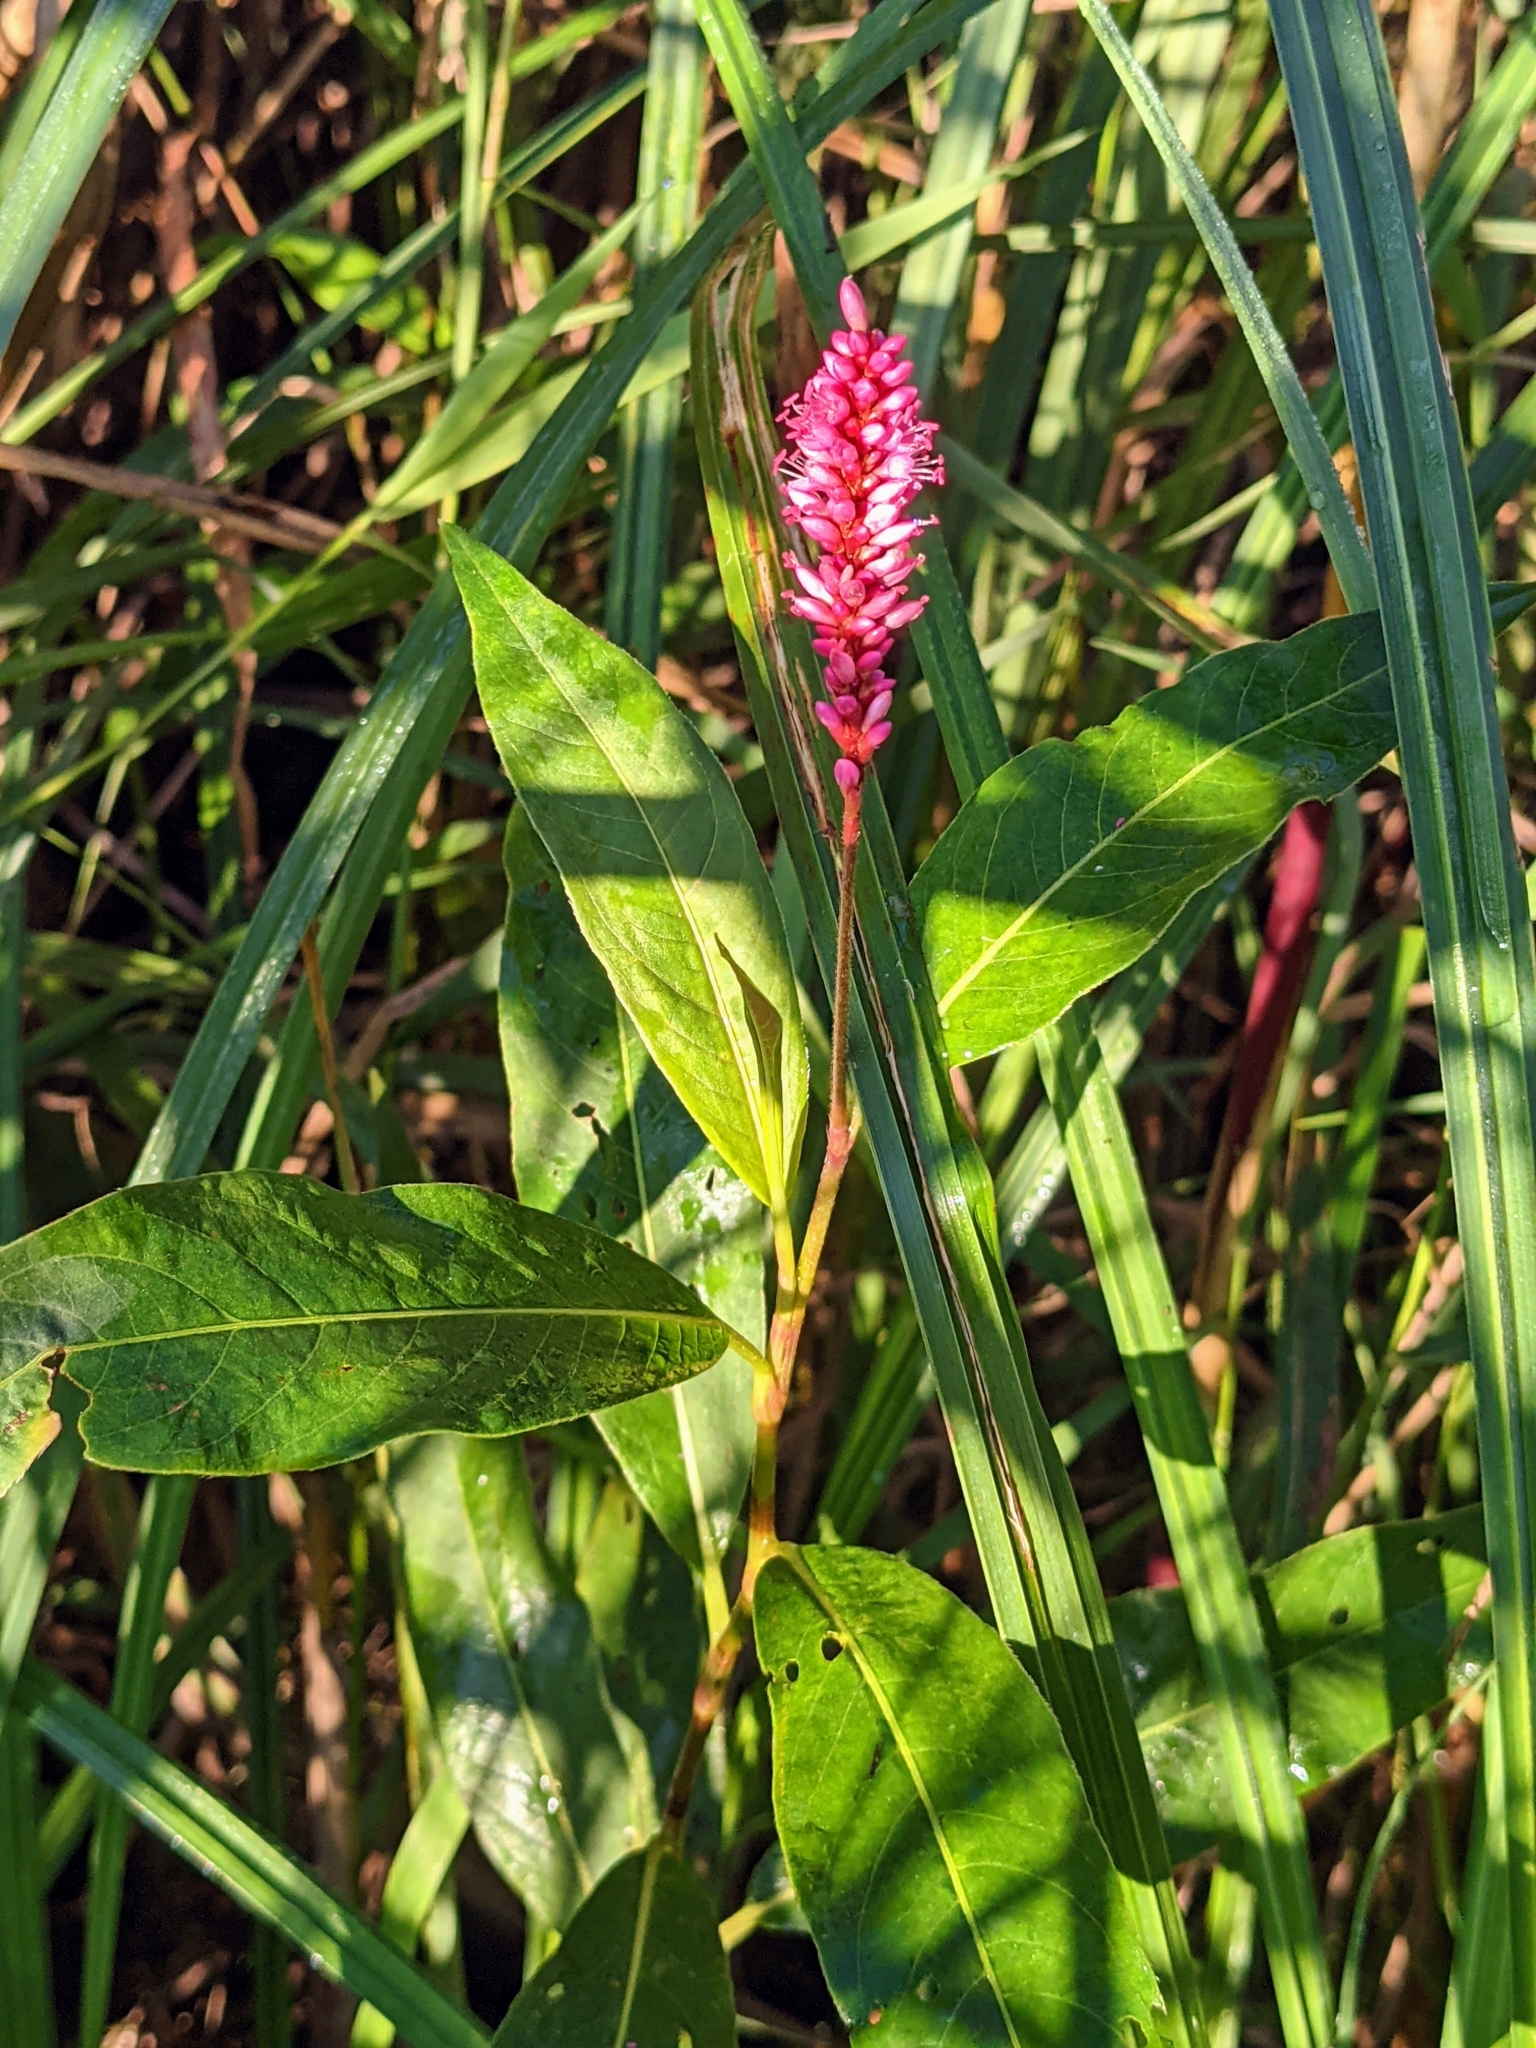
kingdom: Plantae
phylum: Tracheophyta
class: Magnoliopsida
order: Caryophyllales
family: Polygonaceae
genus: Persicaria
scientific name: Persicaria amphibia
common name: Amphibious bistort
